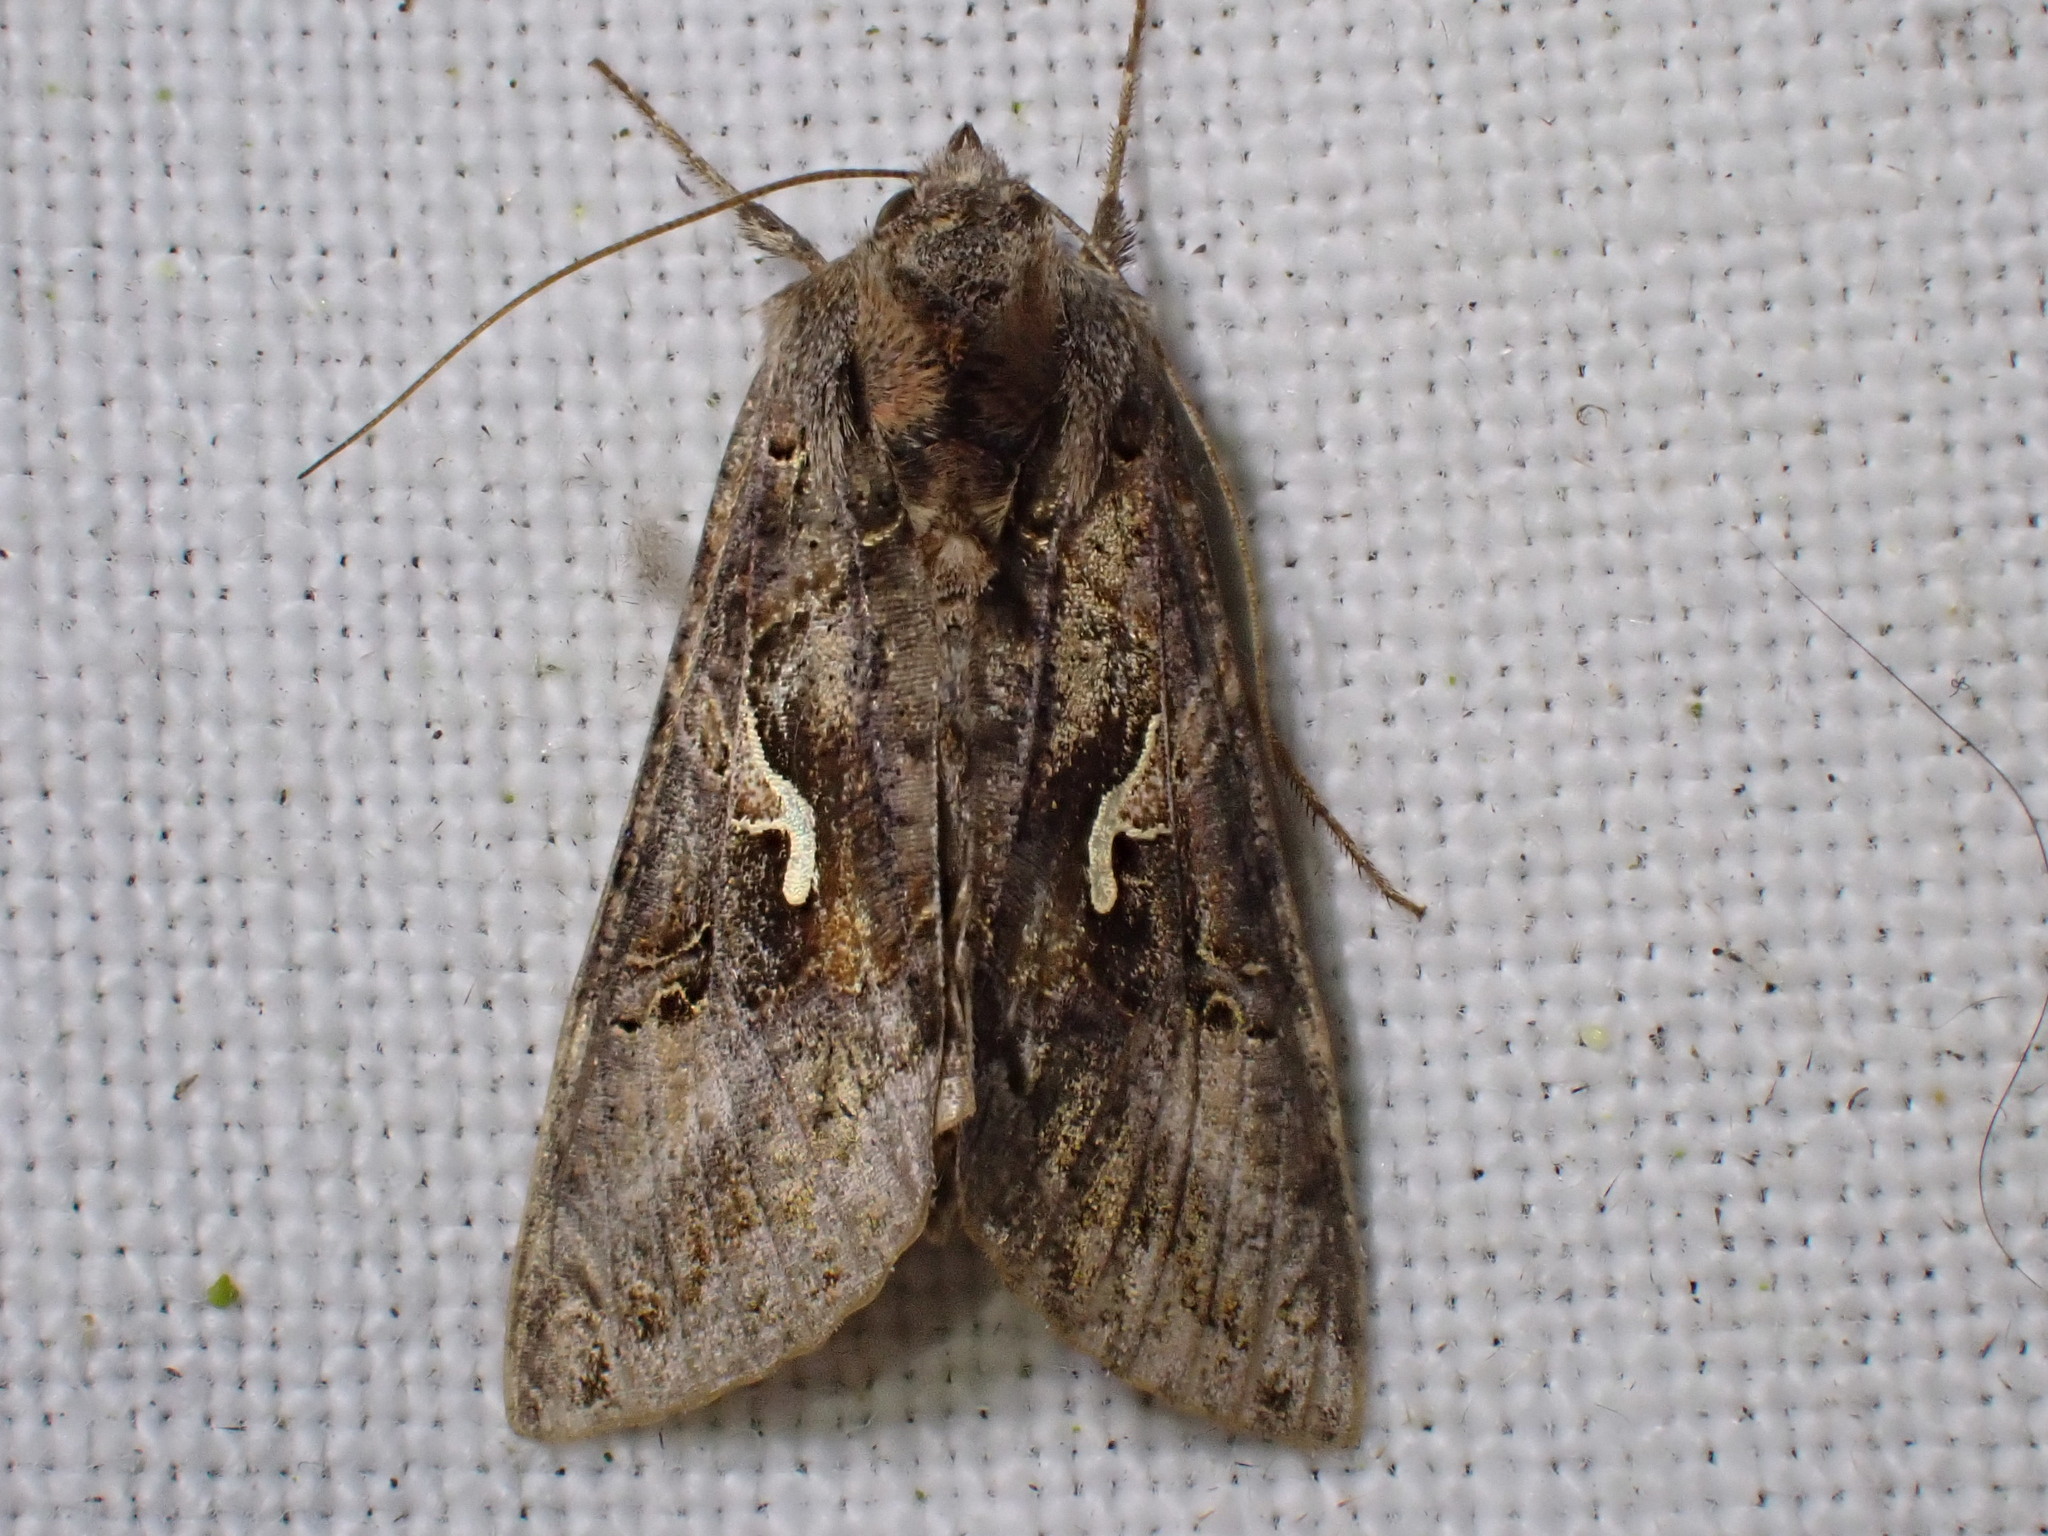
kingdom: Animalia
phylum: Arthropoda
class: Insecta
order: Lepidoptera
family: Noctuidae
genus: Autographa
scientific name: Autographa gamma
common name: Silver y
